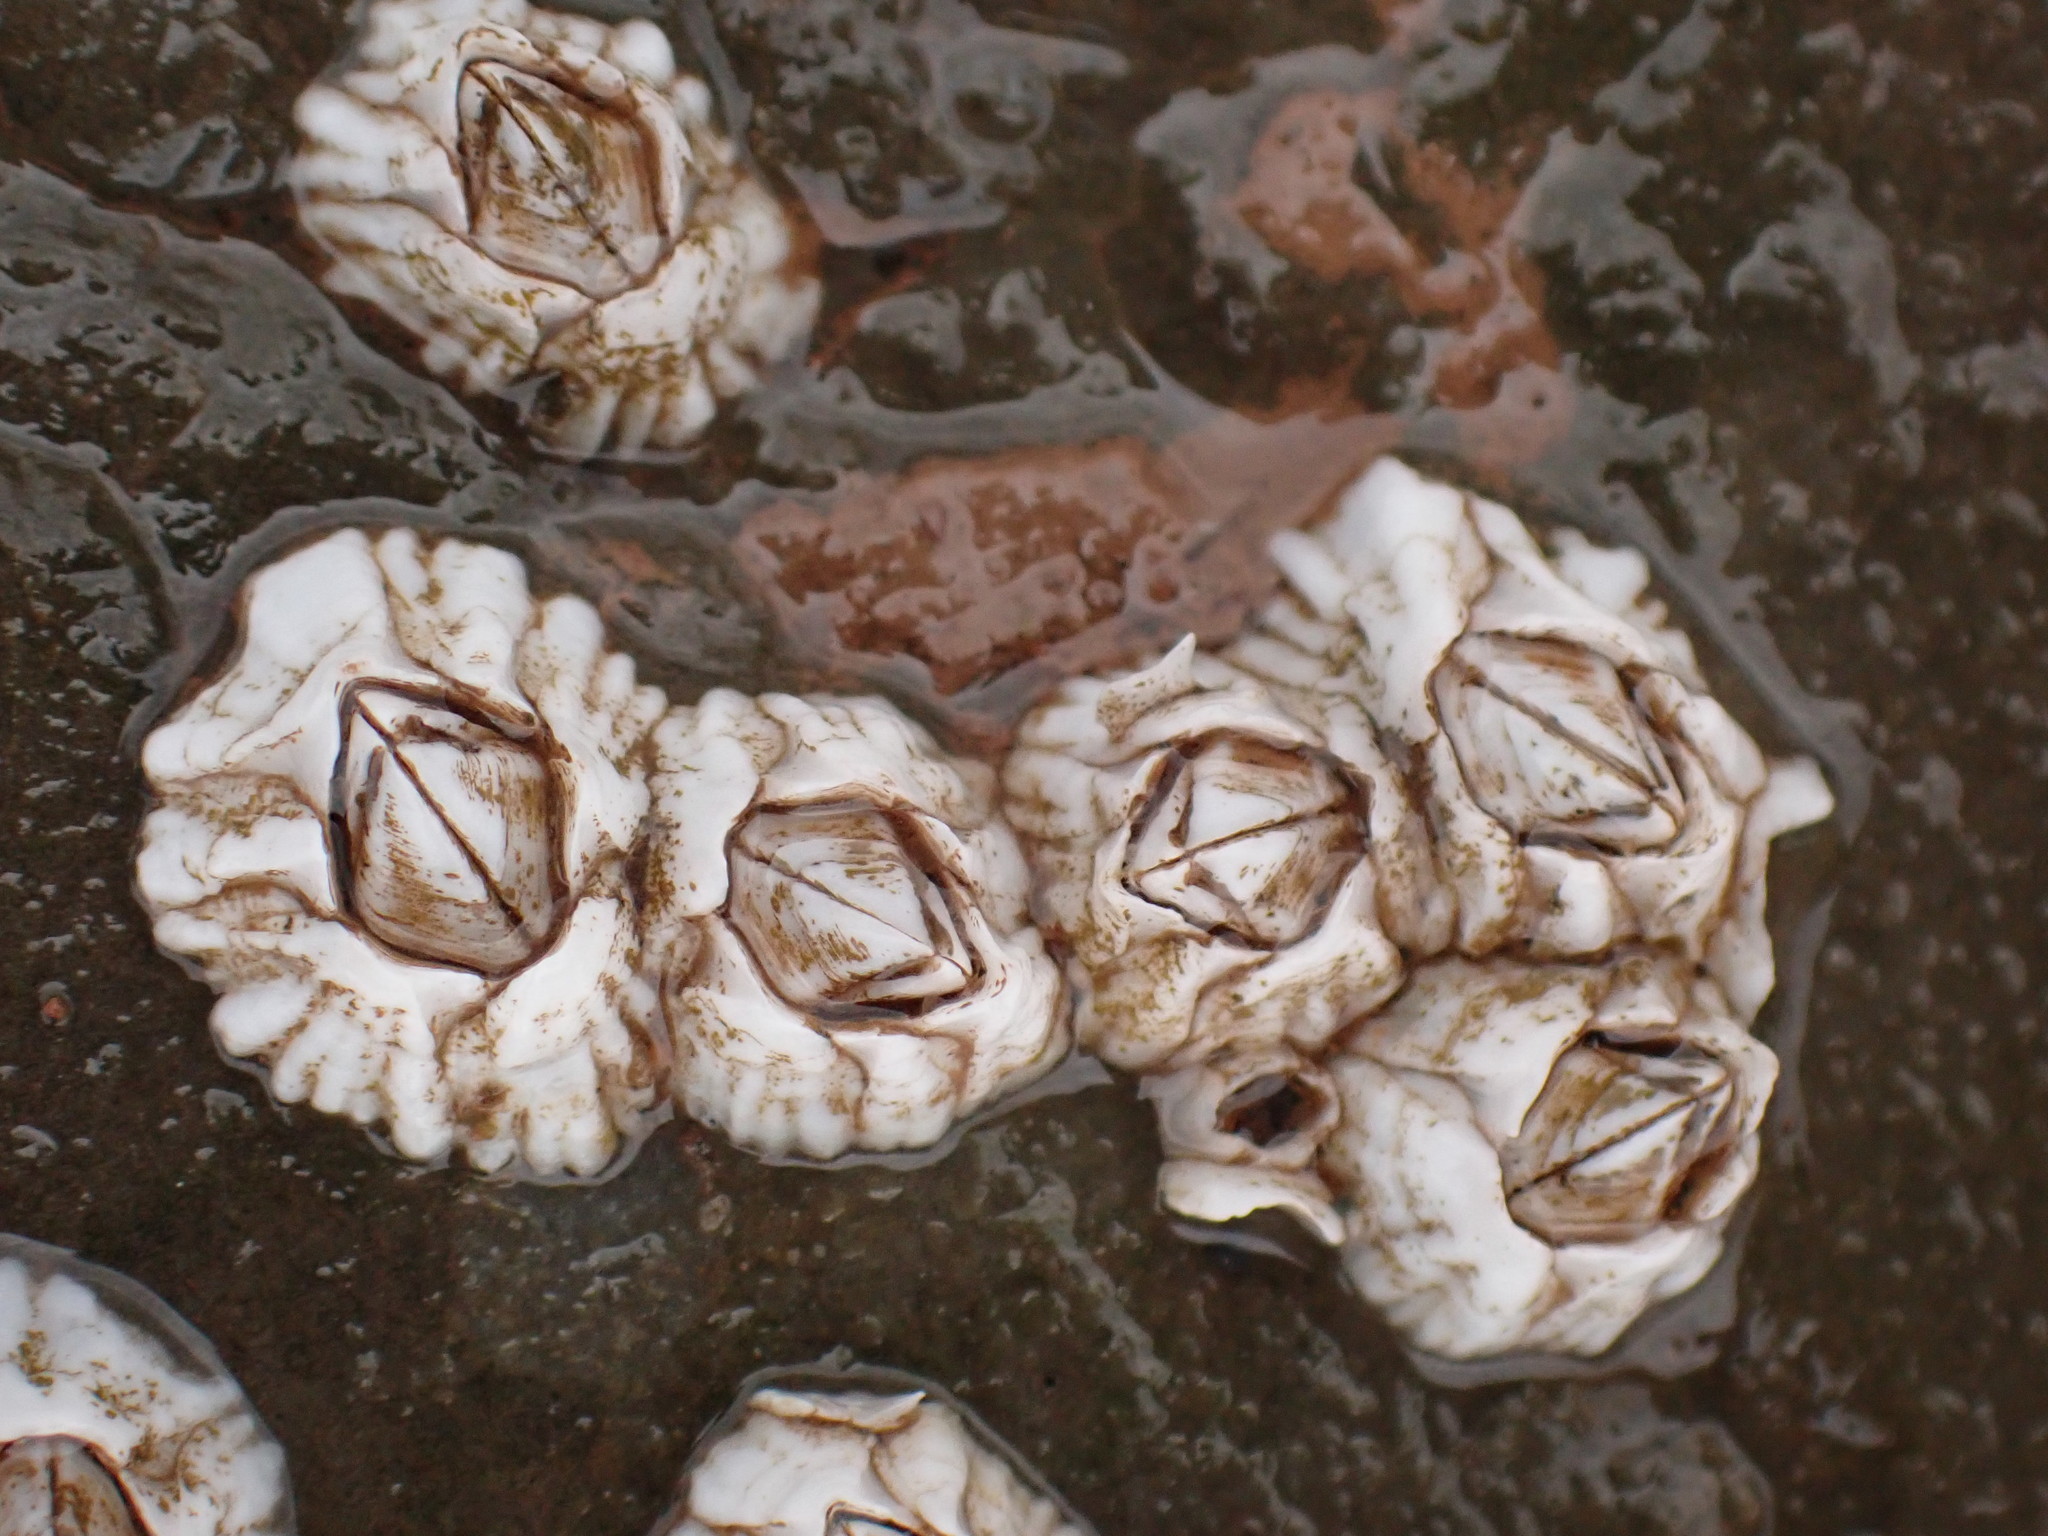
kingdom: Animalia
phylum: Arthropoda
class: Maxillopoda
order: Sessilia
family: Archaeobalanidae
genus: Semibalanus
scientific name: Semibalanus balanoides
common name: Acorn barnacle
